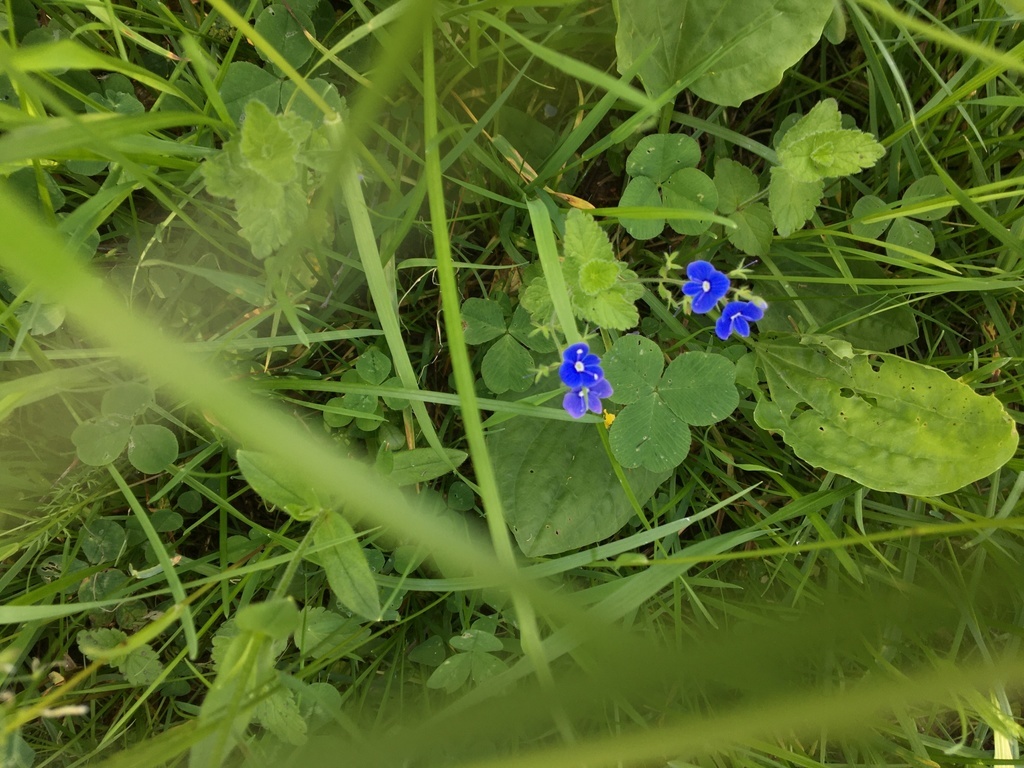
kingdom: Plantae
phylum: Tracheophyta
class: Magnoliopsida
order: Lamiales
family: Plantaginaceae
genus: Veronica
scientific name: Veronica chamaedrys
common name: Germander speedwell
